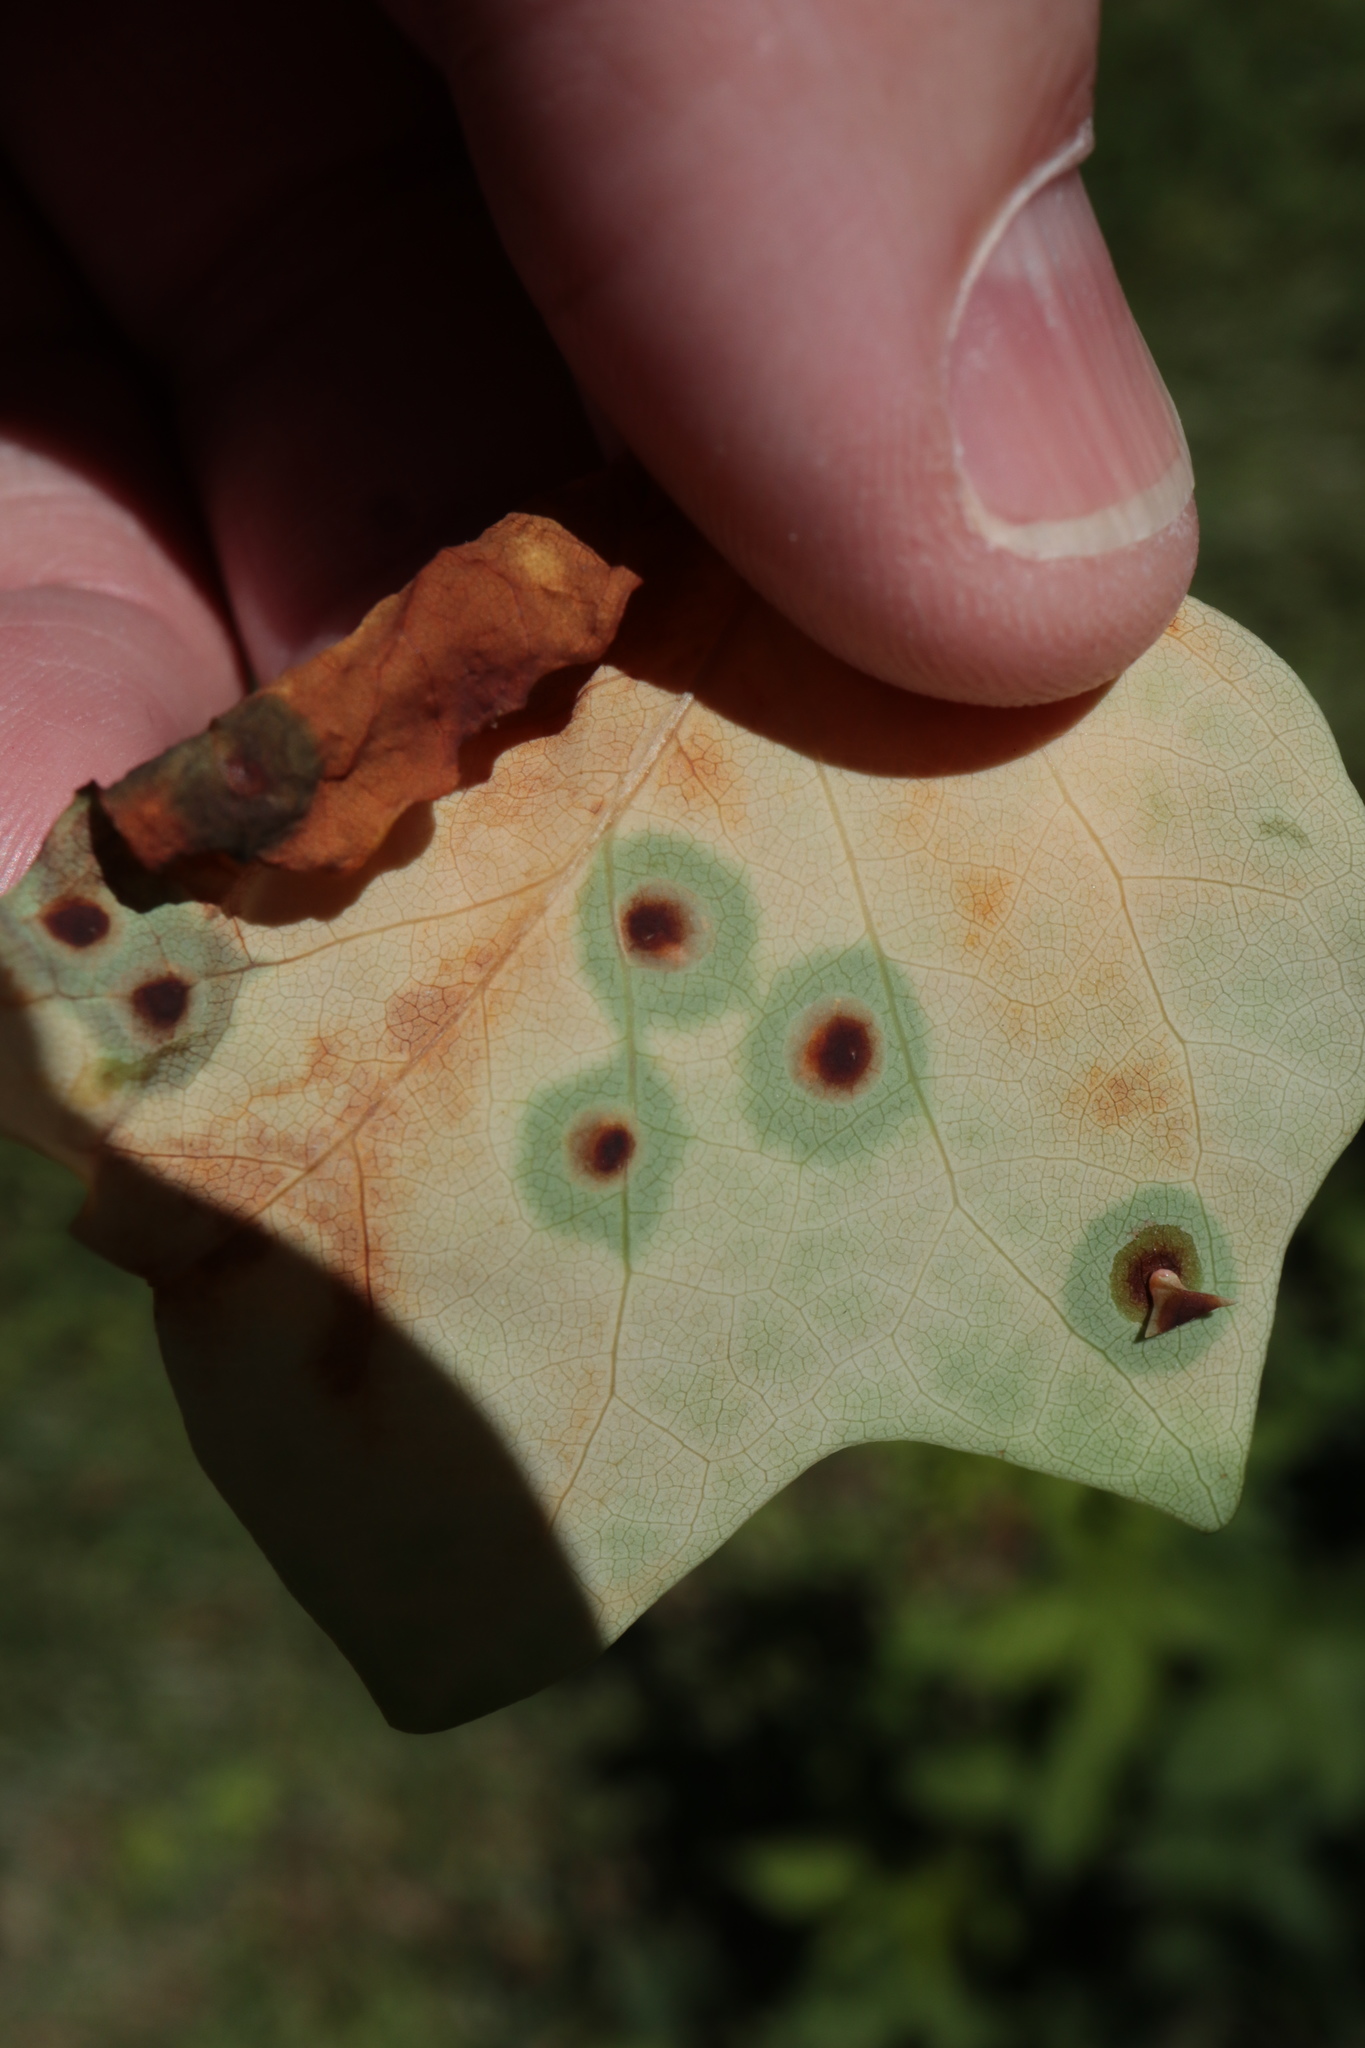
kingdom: Animalia
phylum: Arthropoda
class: Insecta
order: Diptera
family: Cecidomyiidae
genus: Acericecis
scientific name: Acericecis ocellaris
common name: Ocellate gall midge
